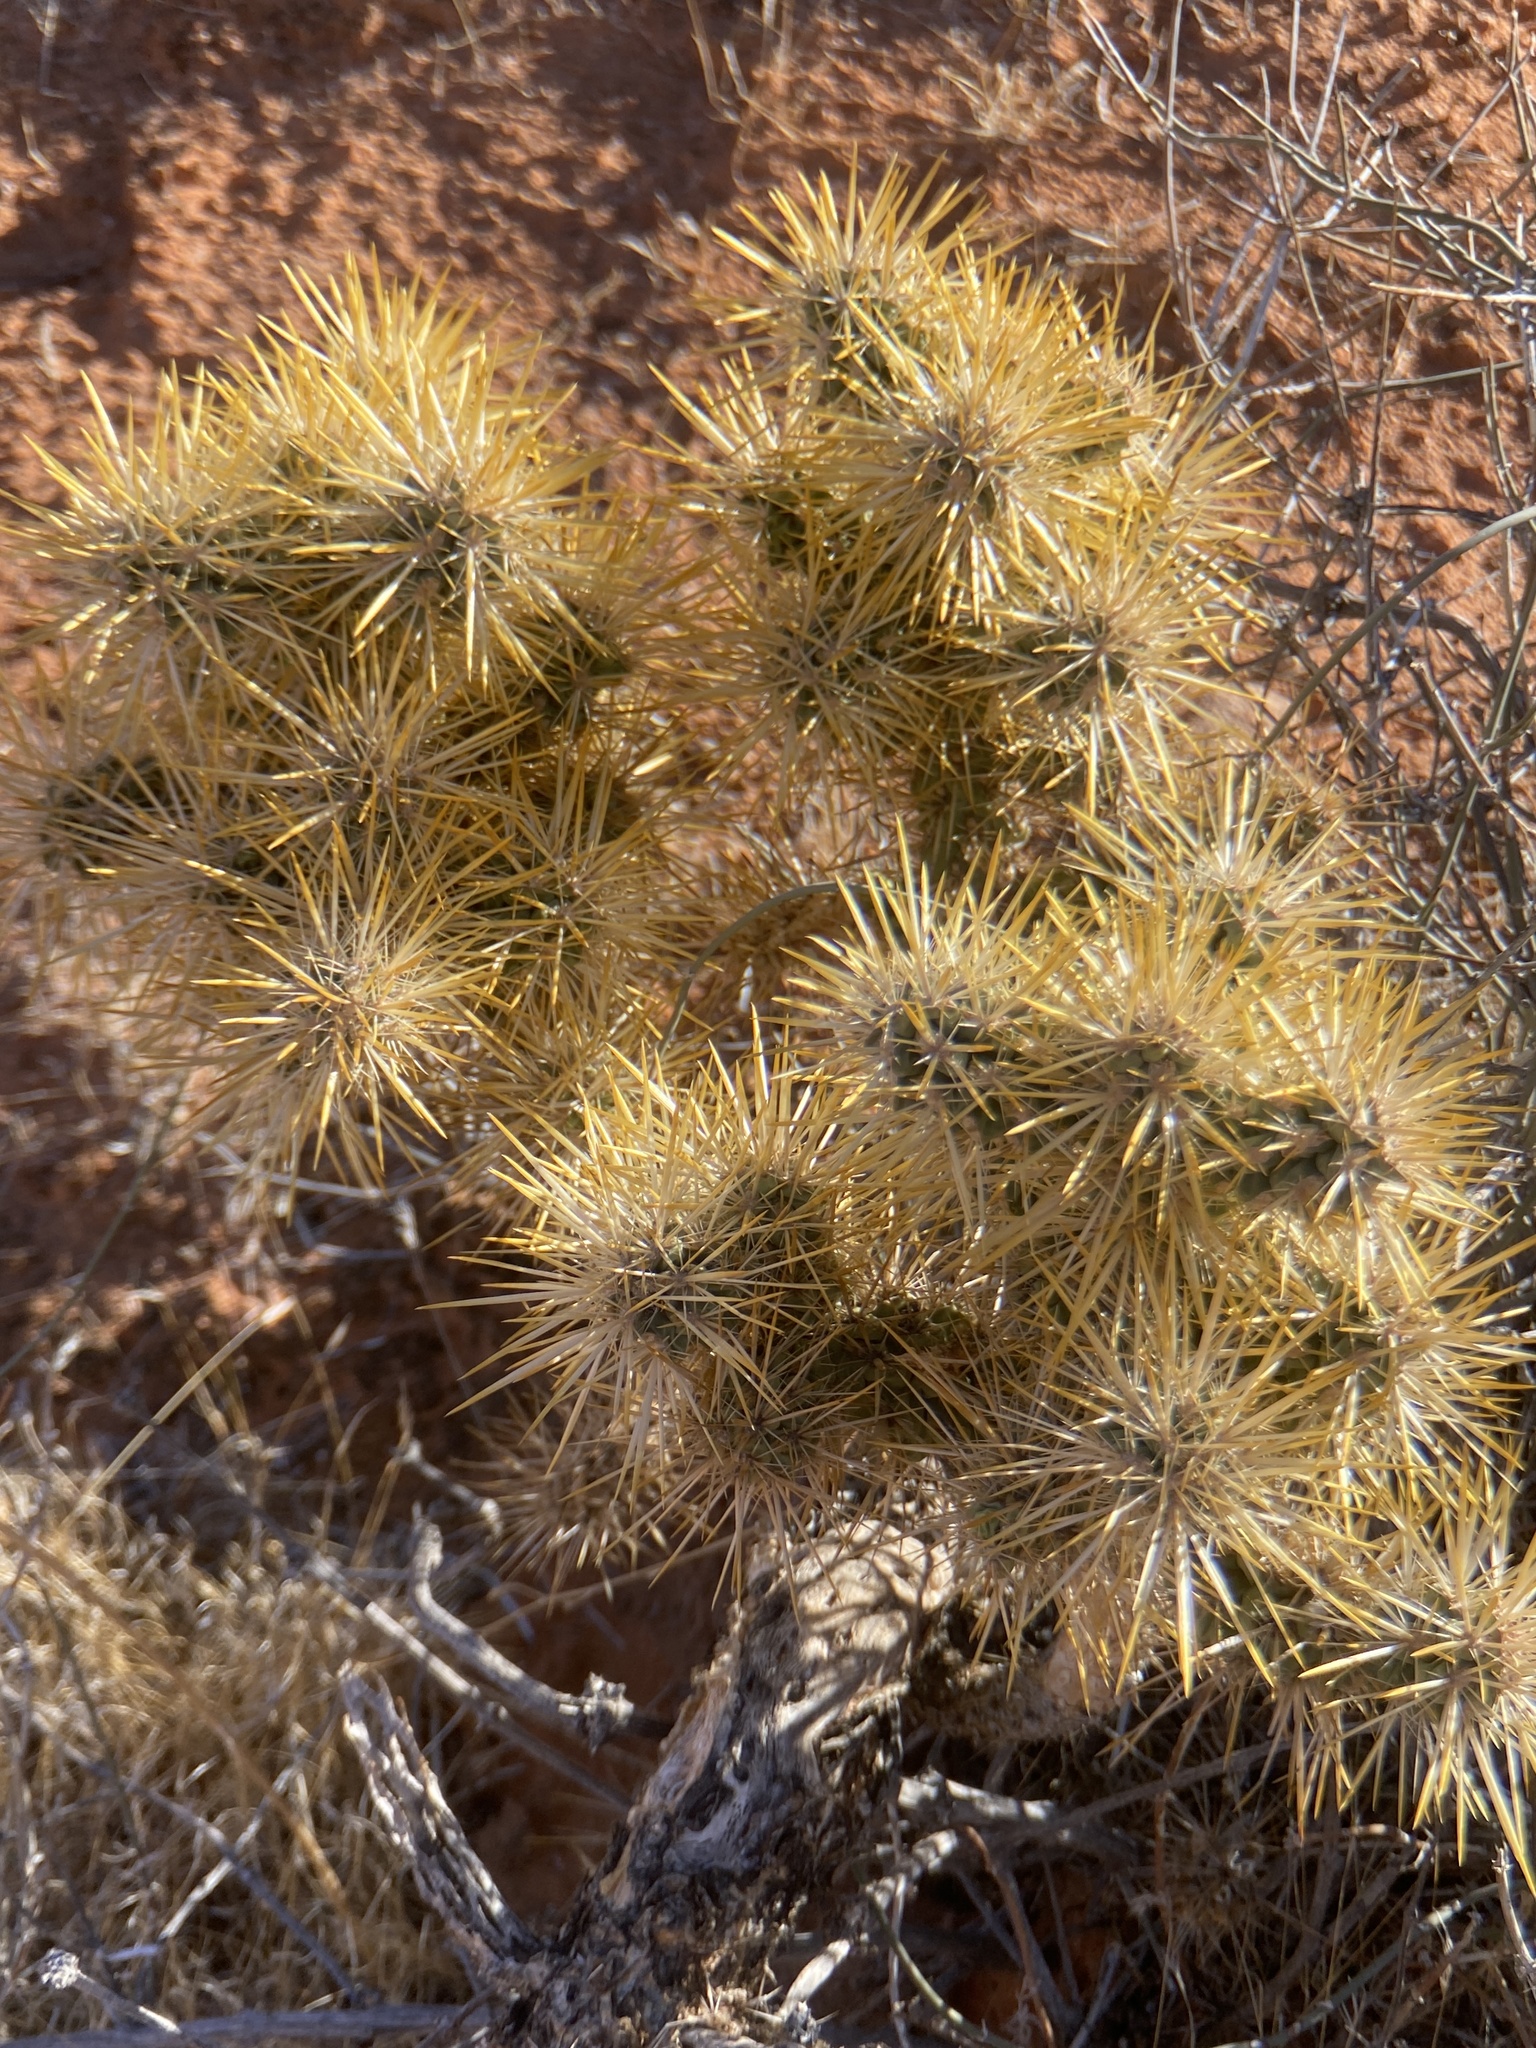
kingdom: Plantae
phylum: Tracheophyta
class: Magnoliopsida
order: Caryophyllales
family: Cactaceae
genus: Cylindropuntia
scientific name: Cylindropuntia echinocarpa
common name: Ground cholla
